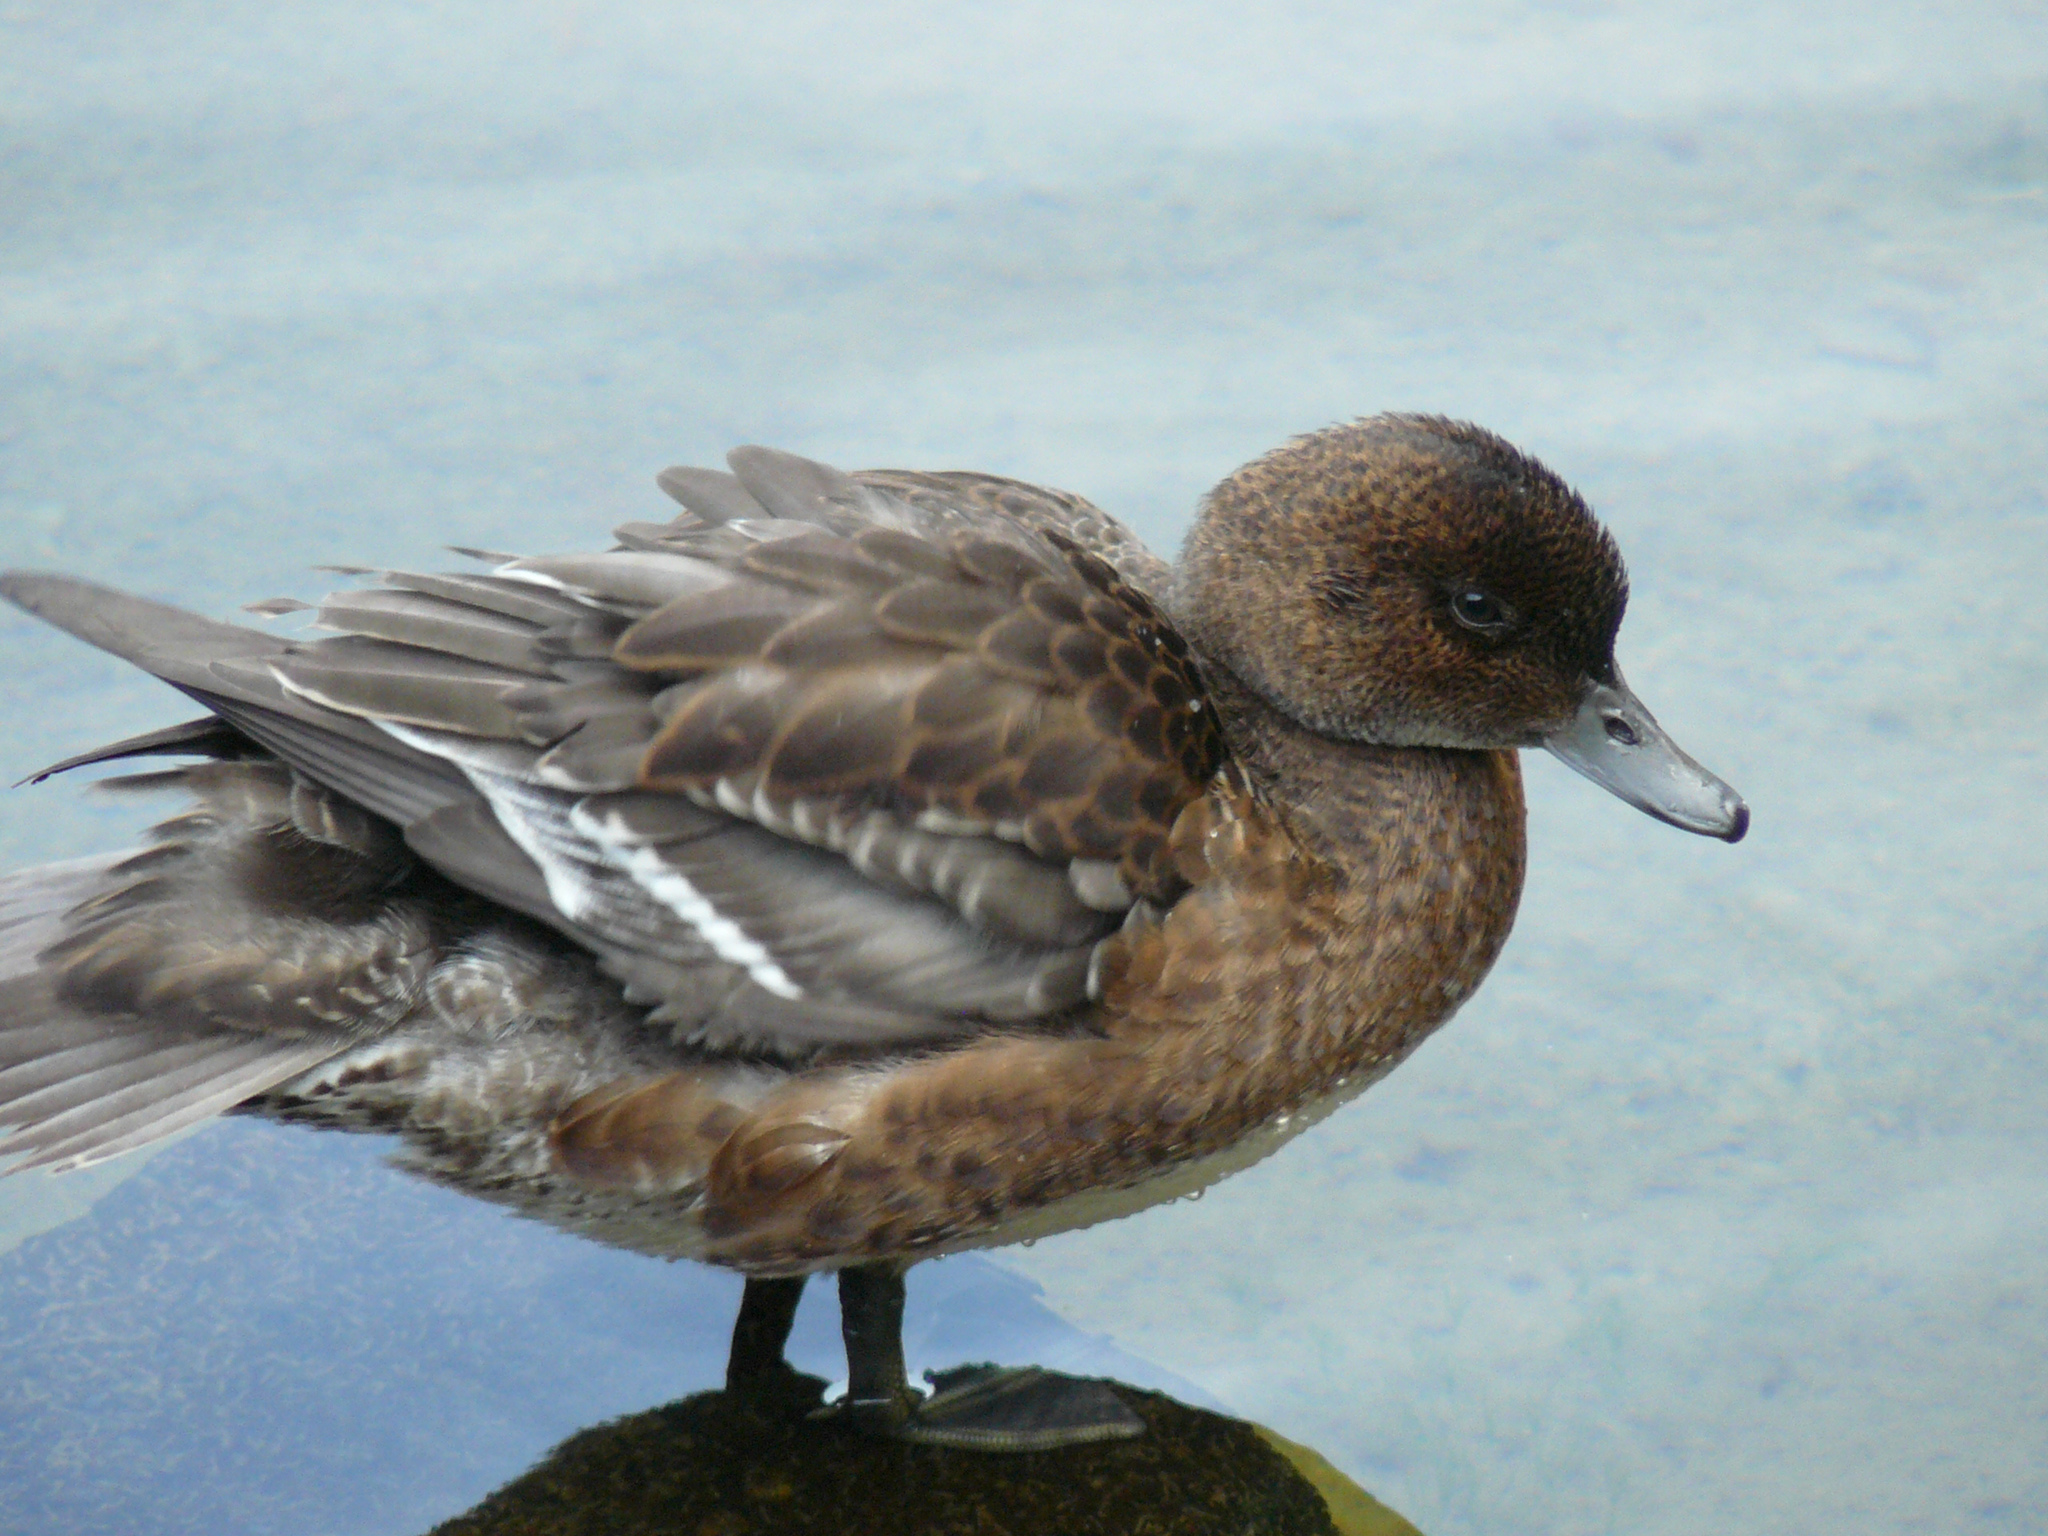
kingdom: Animalia
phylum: Chordata
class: Aves
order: Anseriformes
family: Anatidae
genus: Mareca
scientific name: Mareca penelope
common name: Eurasian wigeon
